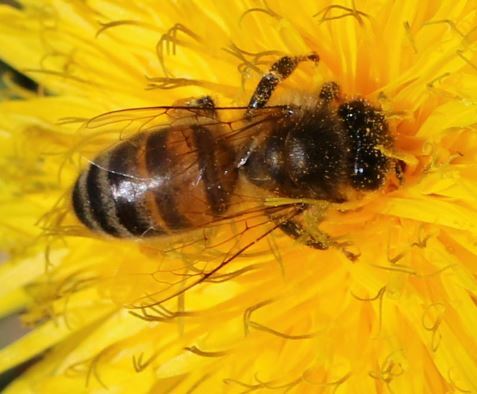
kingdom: Animalia
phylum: Arthropoda
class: Insecta
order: Hymenoptera
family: Apidae
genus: Apis
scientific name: Apis mellifera
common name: Honey bee
